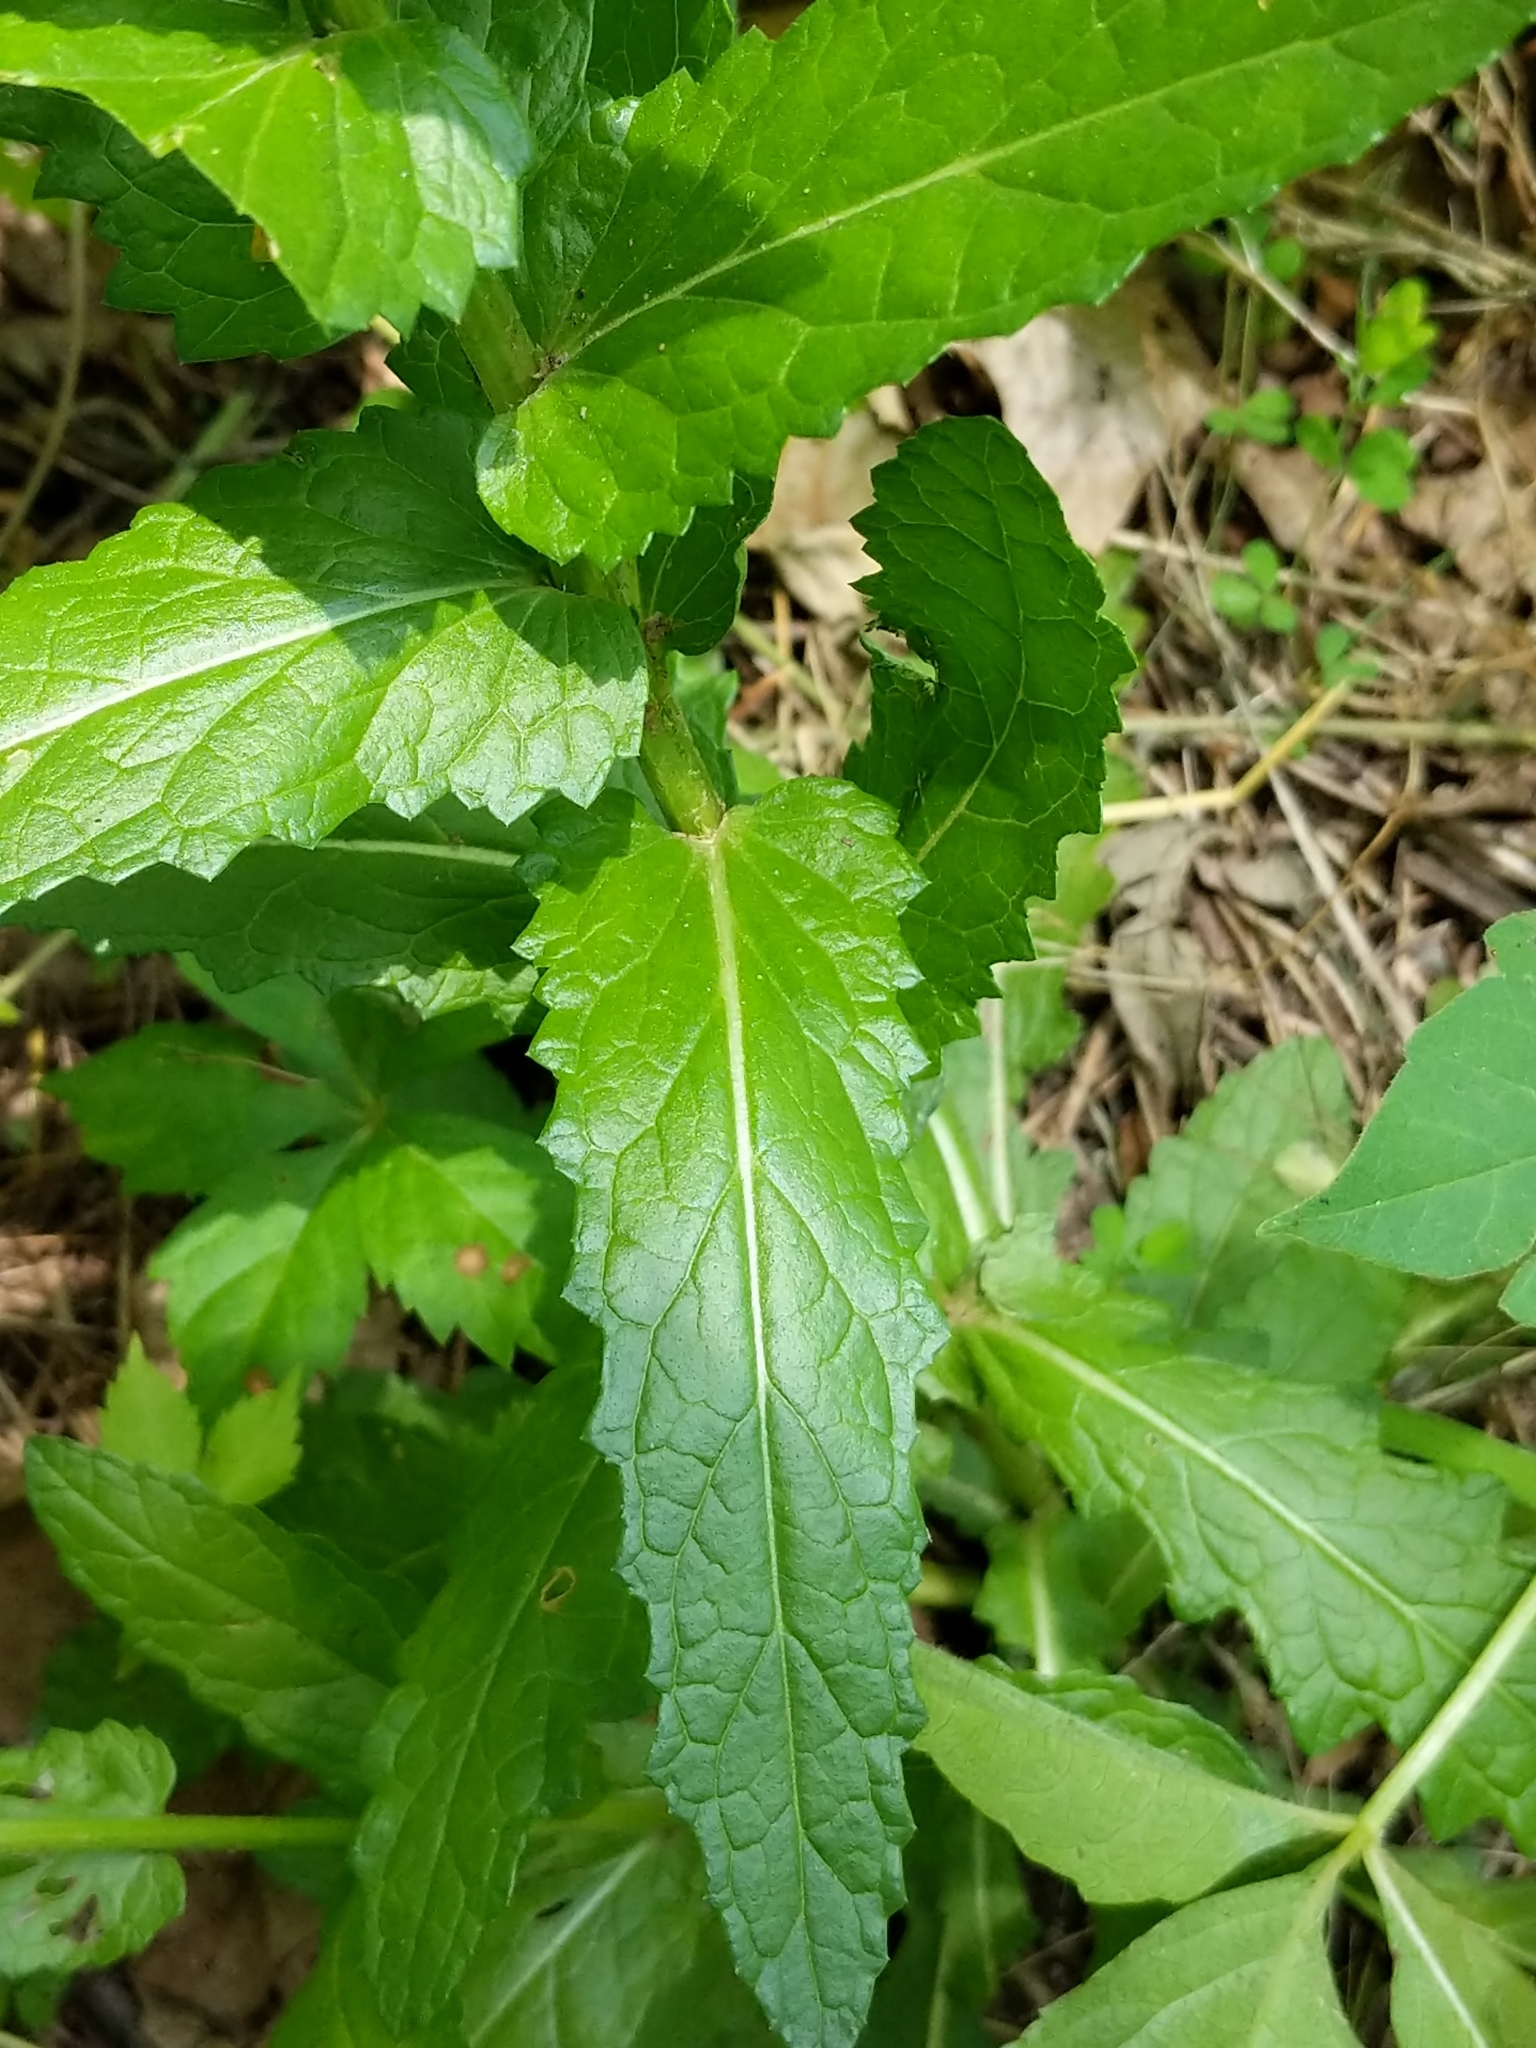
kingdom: Plantae
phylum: Tracheophyta
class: Magnoliopsida
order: Lamiales
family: Scrophulariaceae
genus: Verbascum
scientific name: Verbascum blattaria
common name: Moth mullein
